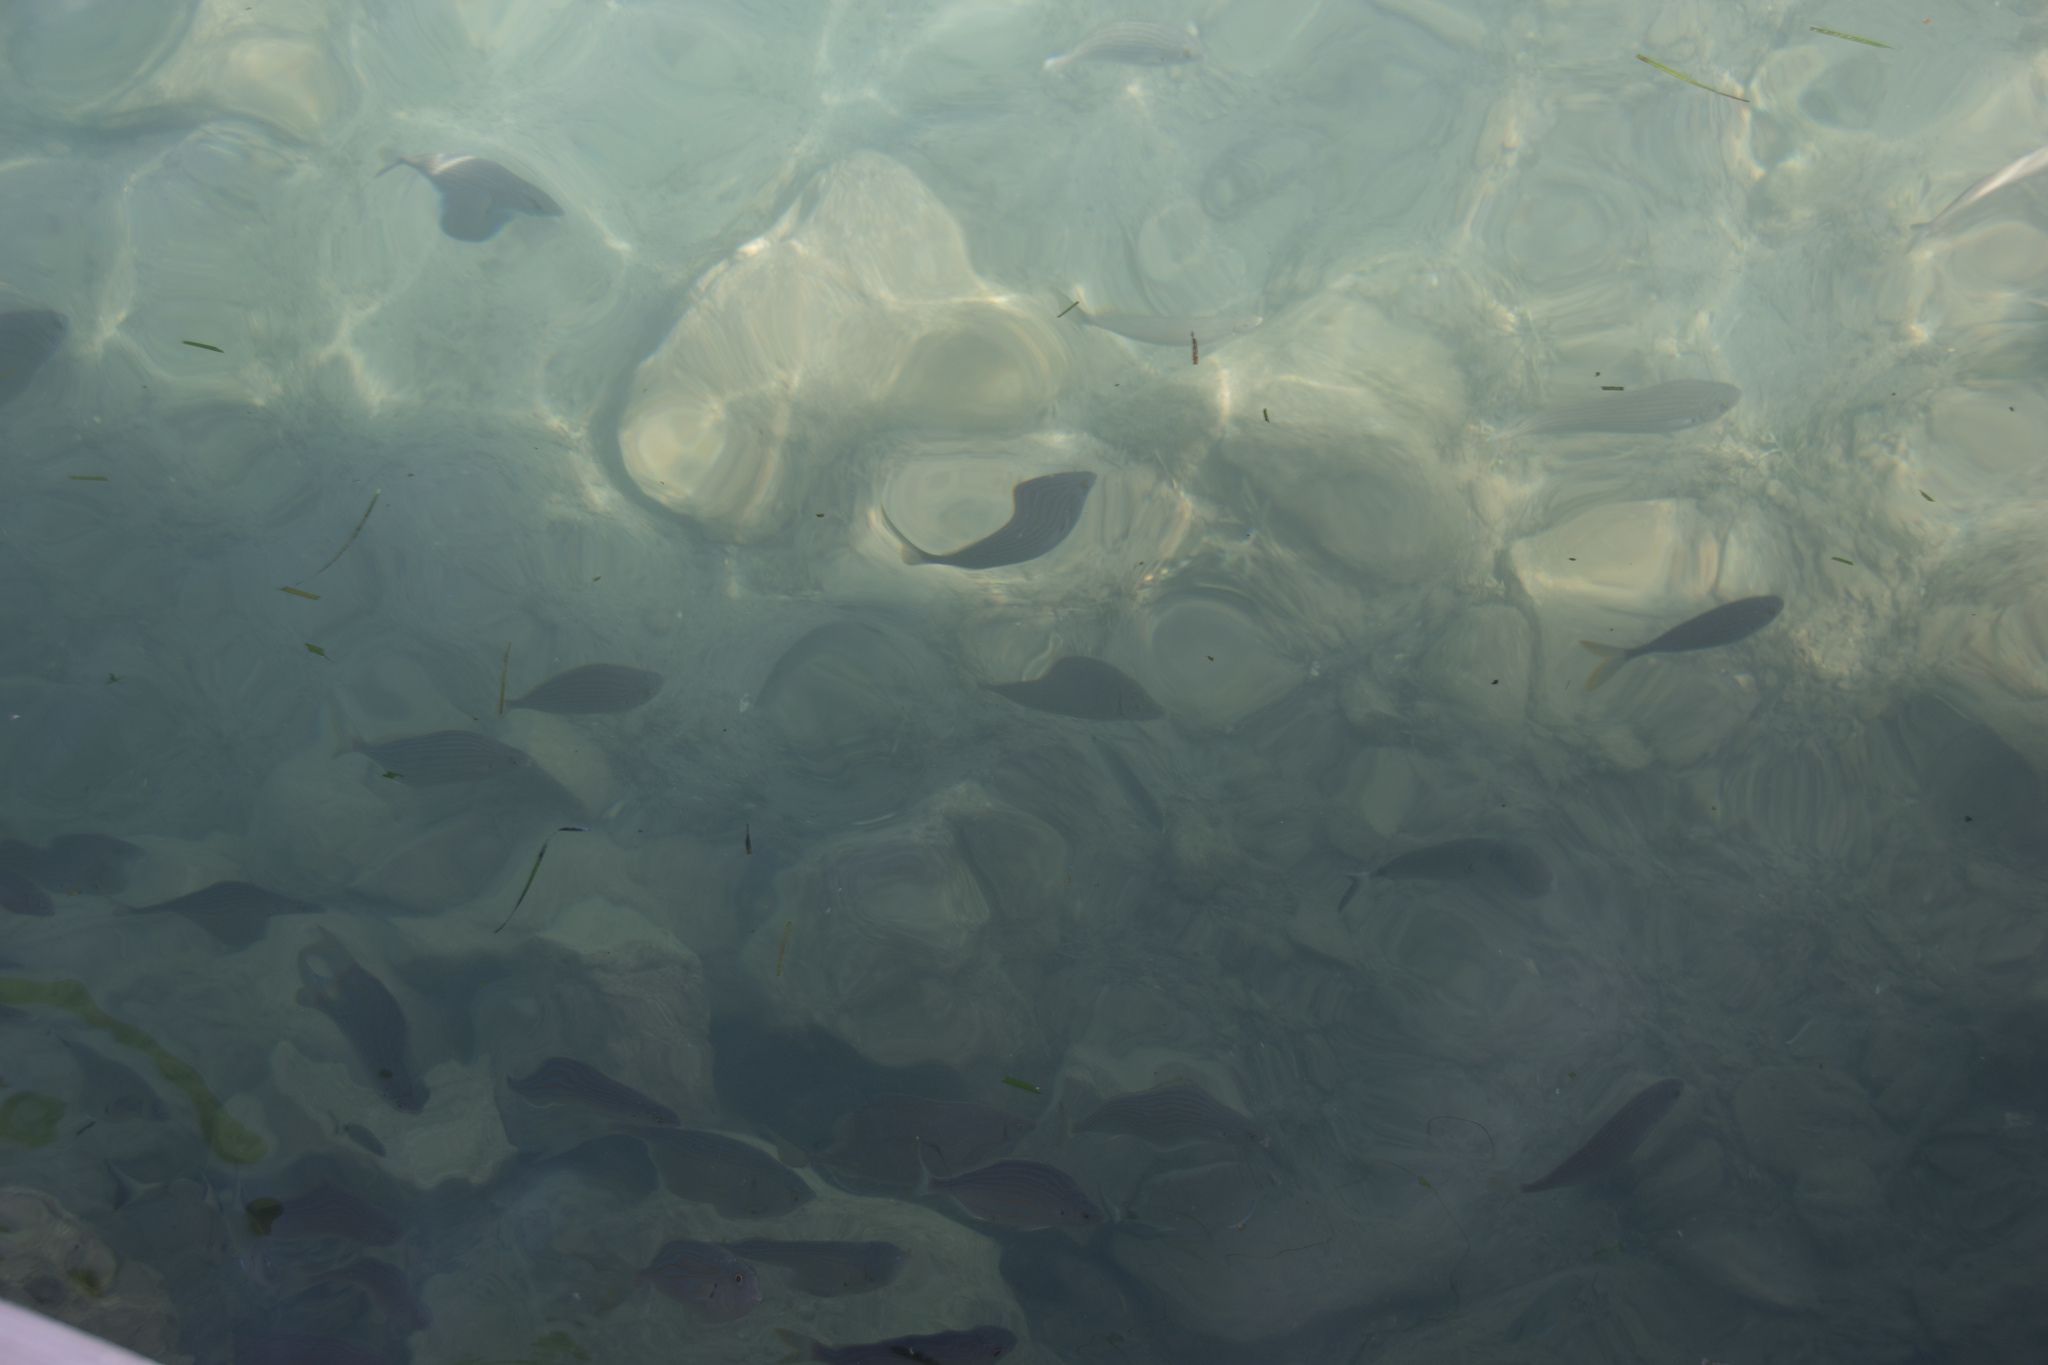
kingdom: Animalia
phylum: Chordata
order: Perciformes
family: Sparidae
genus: Sarpa
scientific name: Sarpa salpa
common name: Salema
